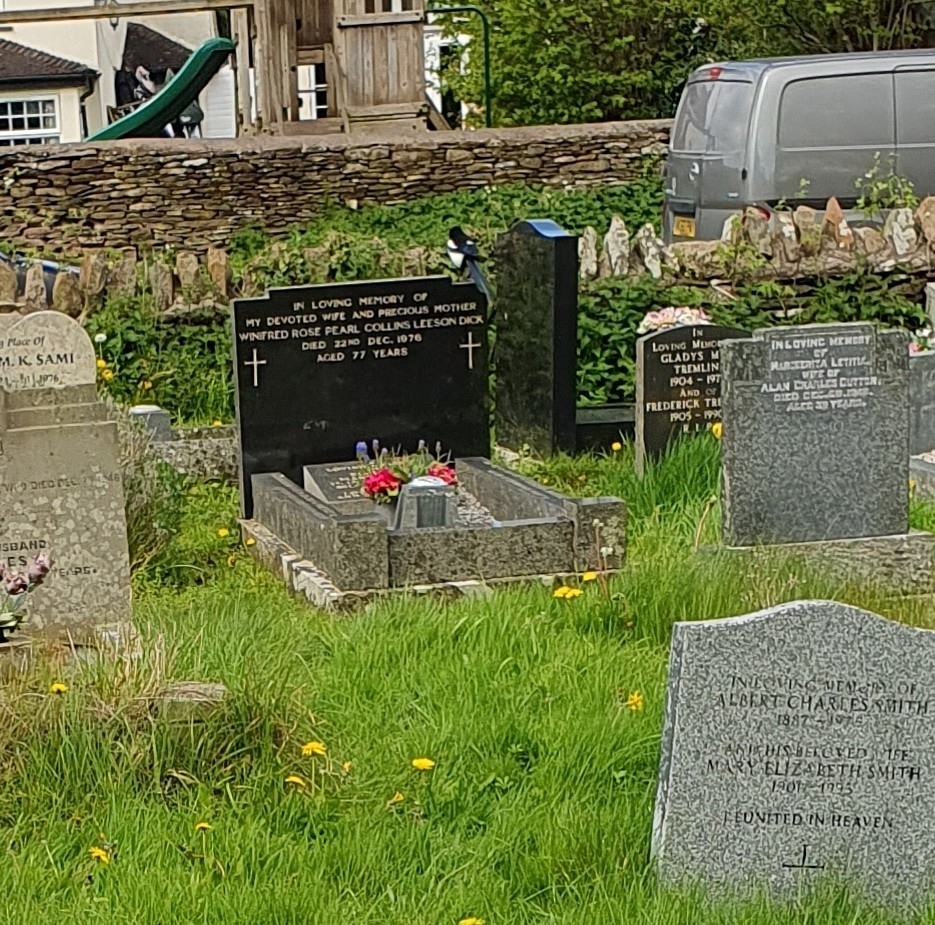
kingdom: Animalia
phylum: Chordata
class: Aves
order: Passeriformes
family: Corvidae
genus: Pica
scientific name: Pica pica
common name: Eurasian magpie
